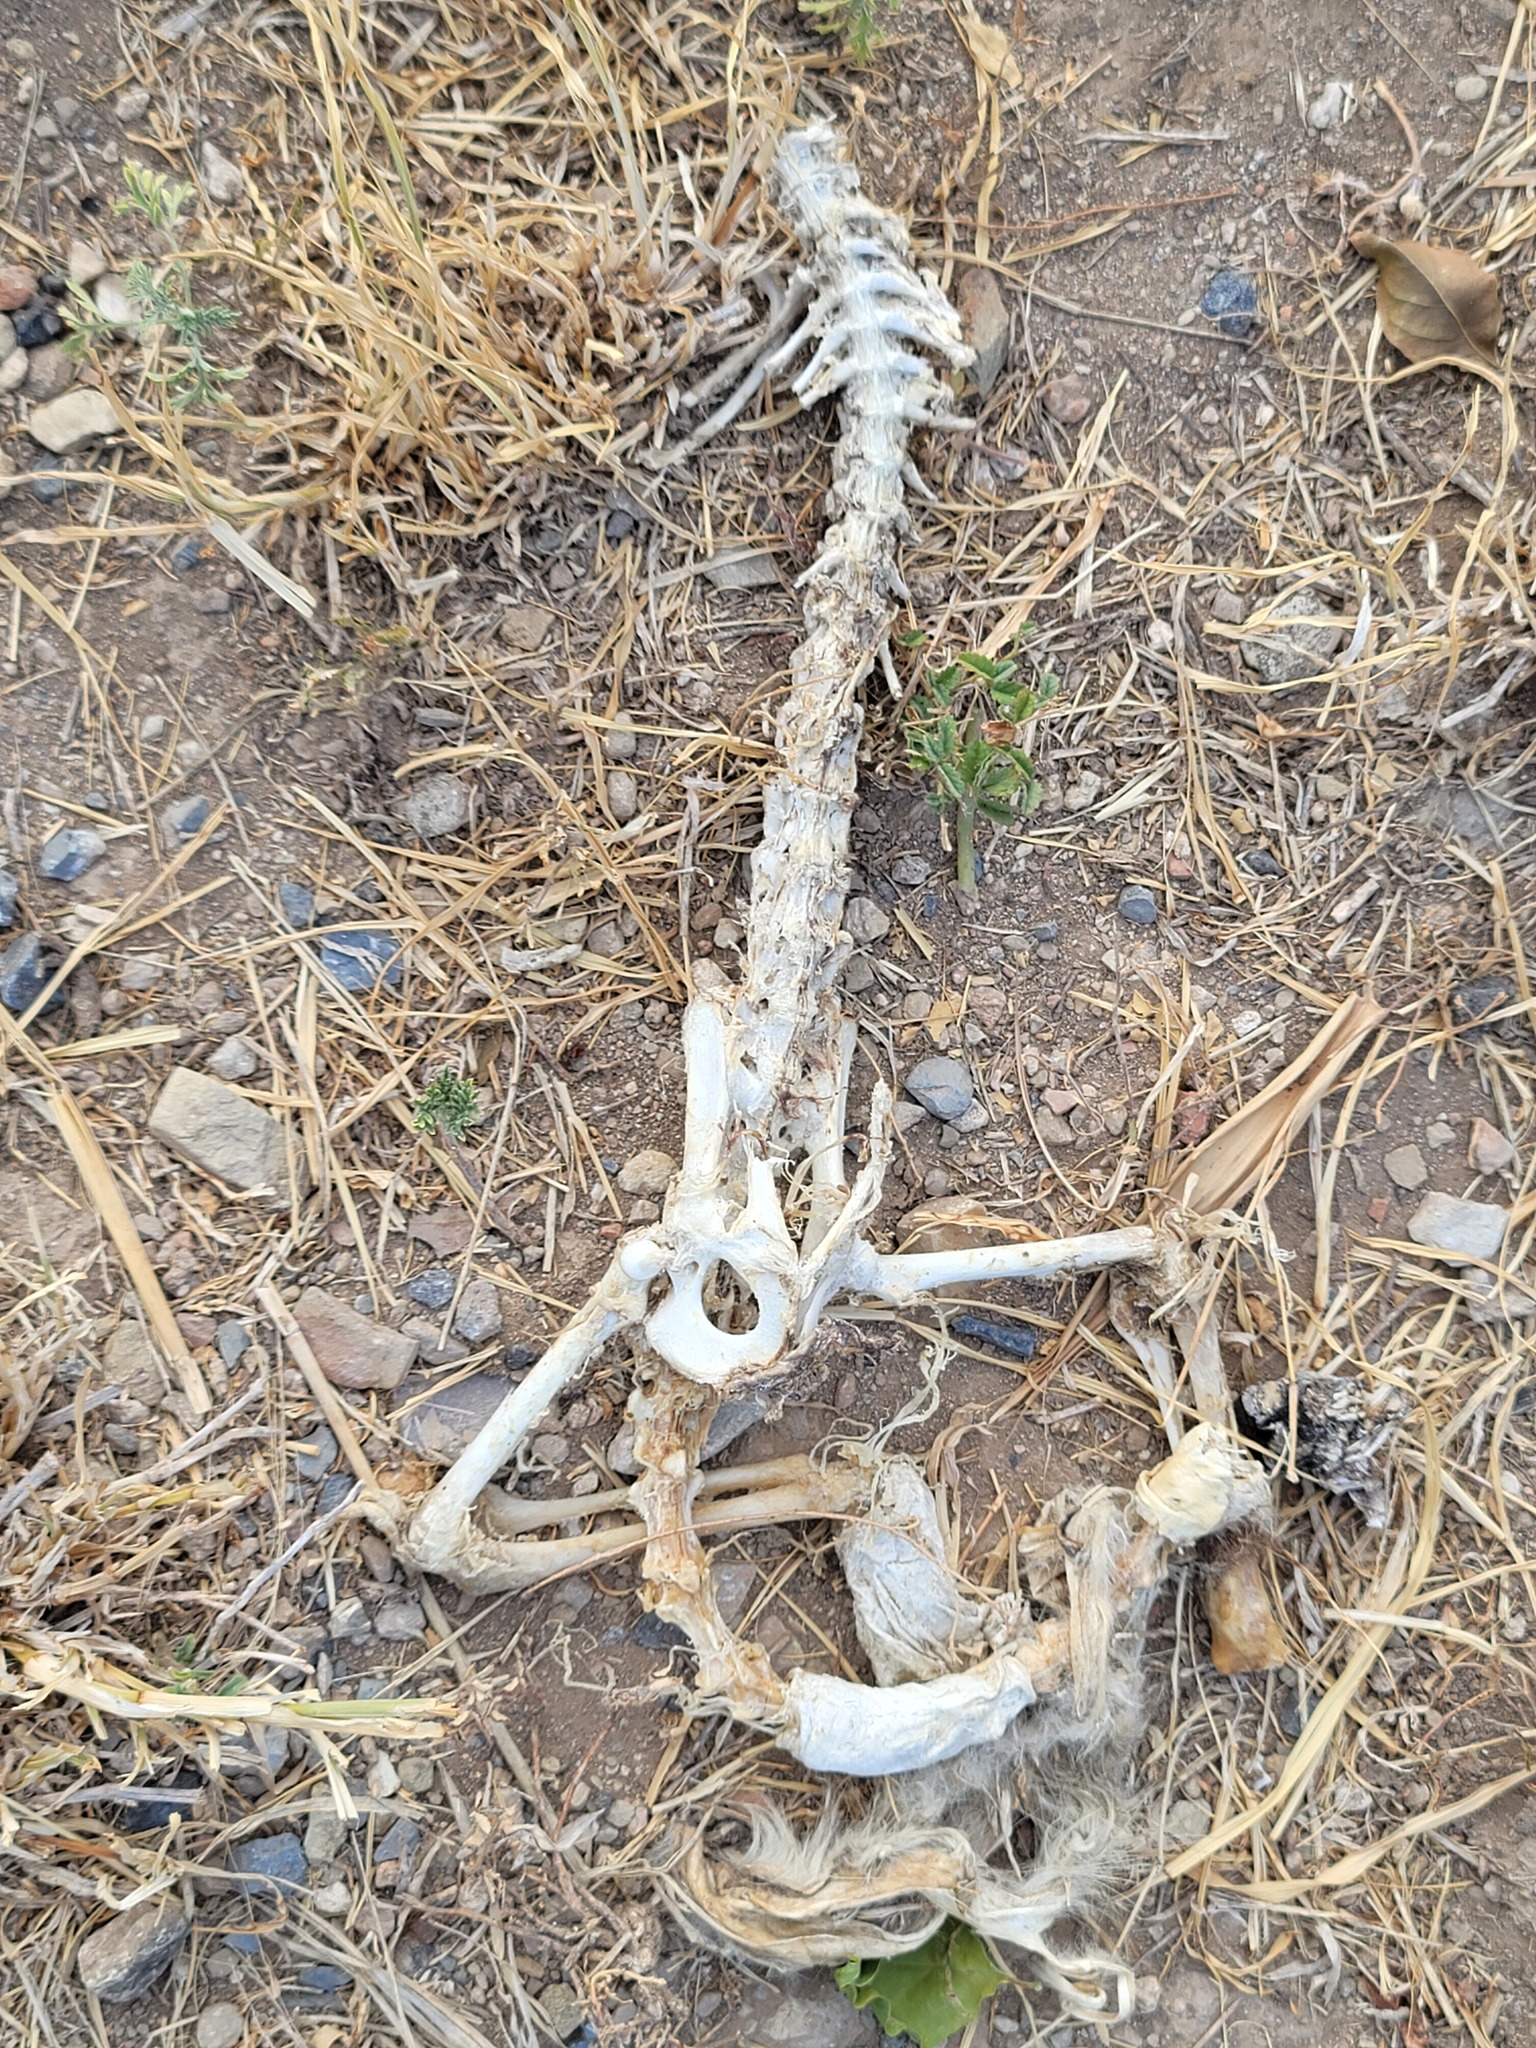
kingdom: Animalia
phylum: Chordata
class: Mammalia
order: Didelphimorphia
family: Didelphidae
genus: Didelphis
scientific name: Didelphis virginiana
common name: Virginia opossum
